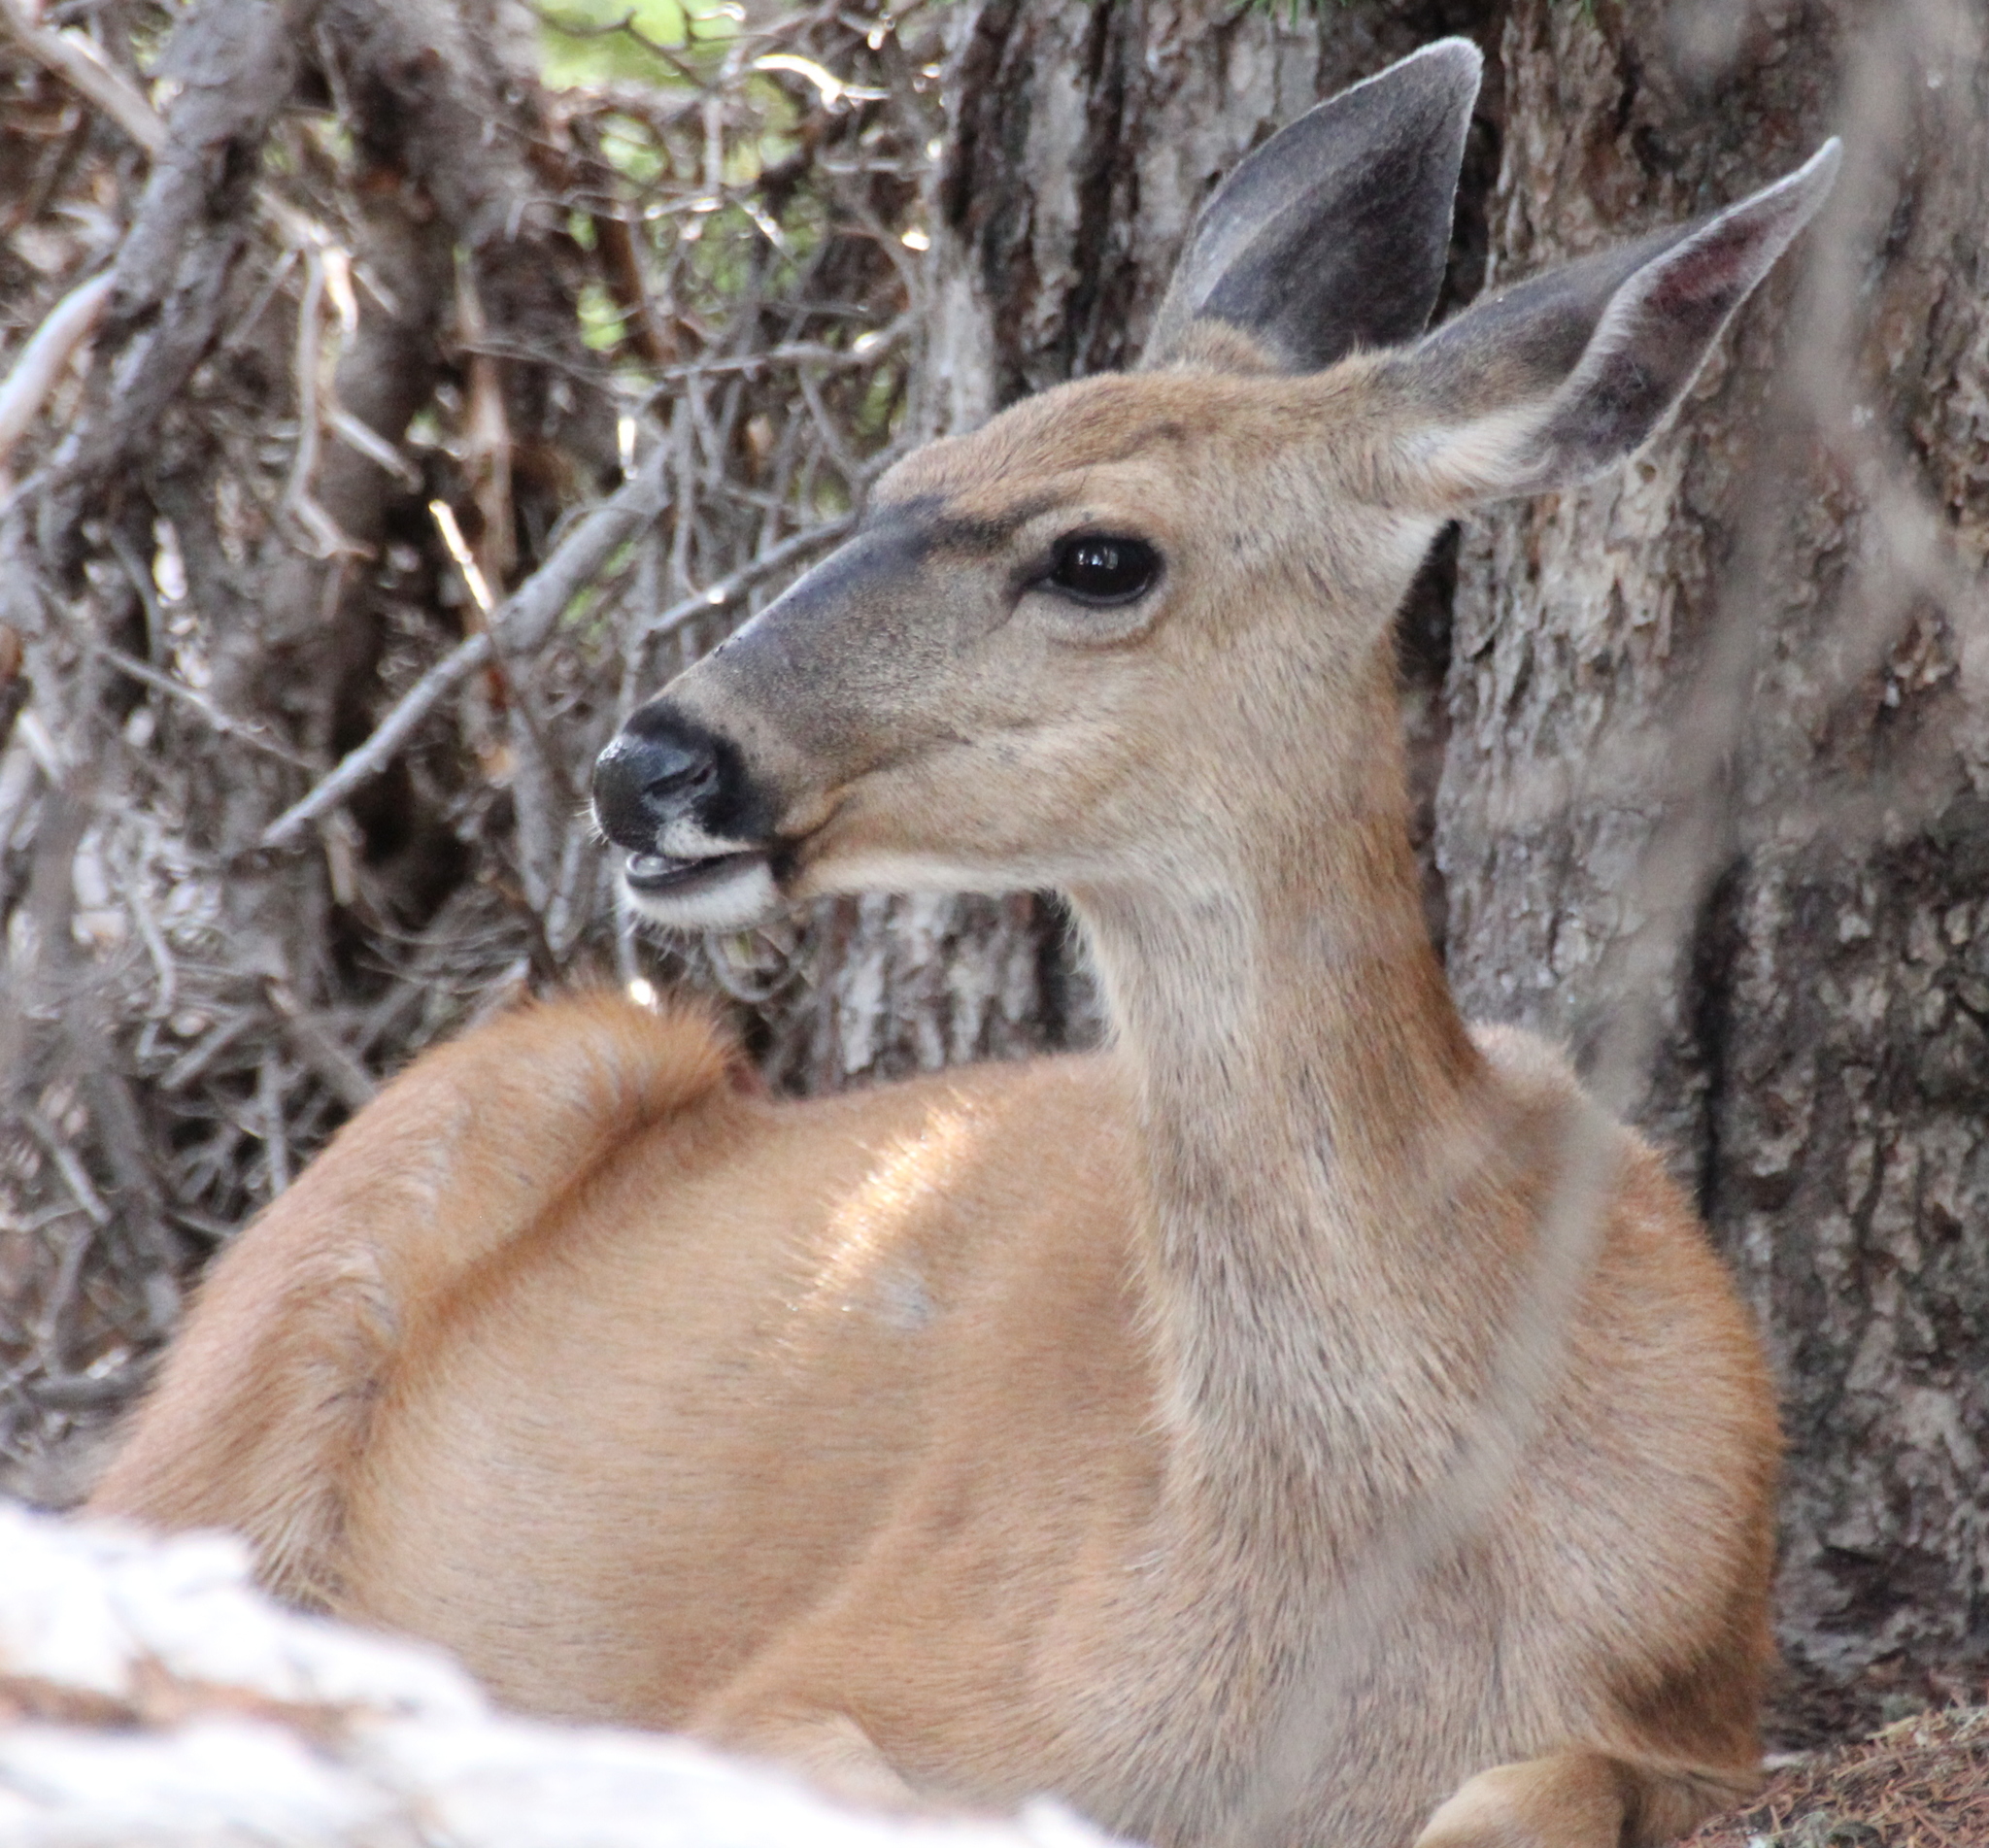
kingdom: Animalia
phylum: Chordata
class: Mammalia
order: Artiodactyla
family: Cervidae
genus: Odocoileus
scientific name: Odocoileus hemionus
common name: Mule deer
